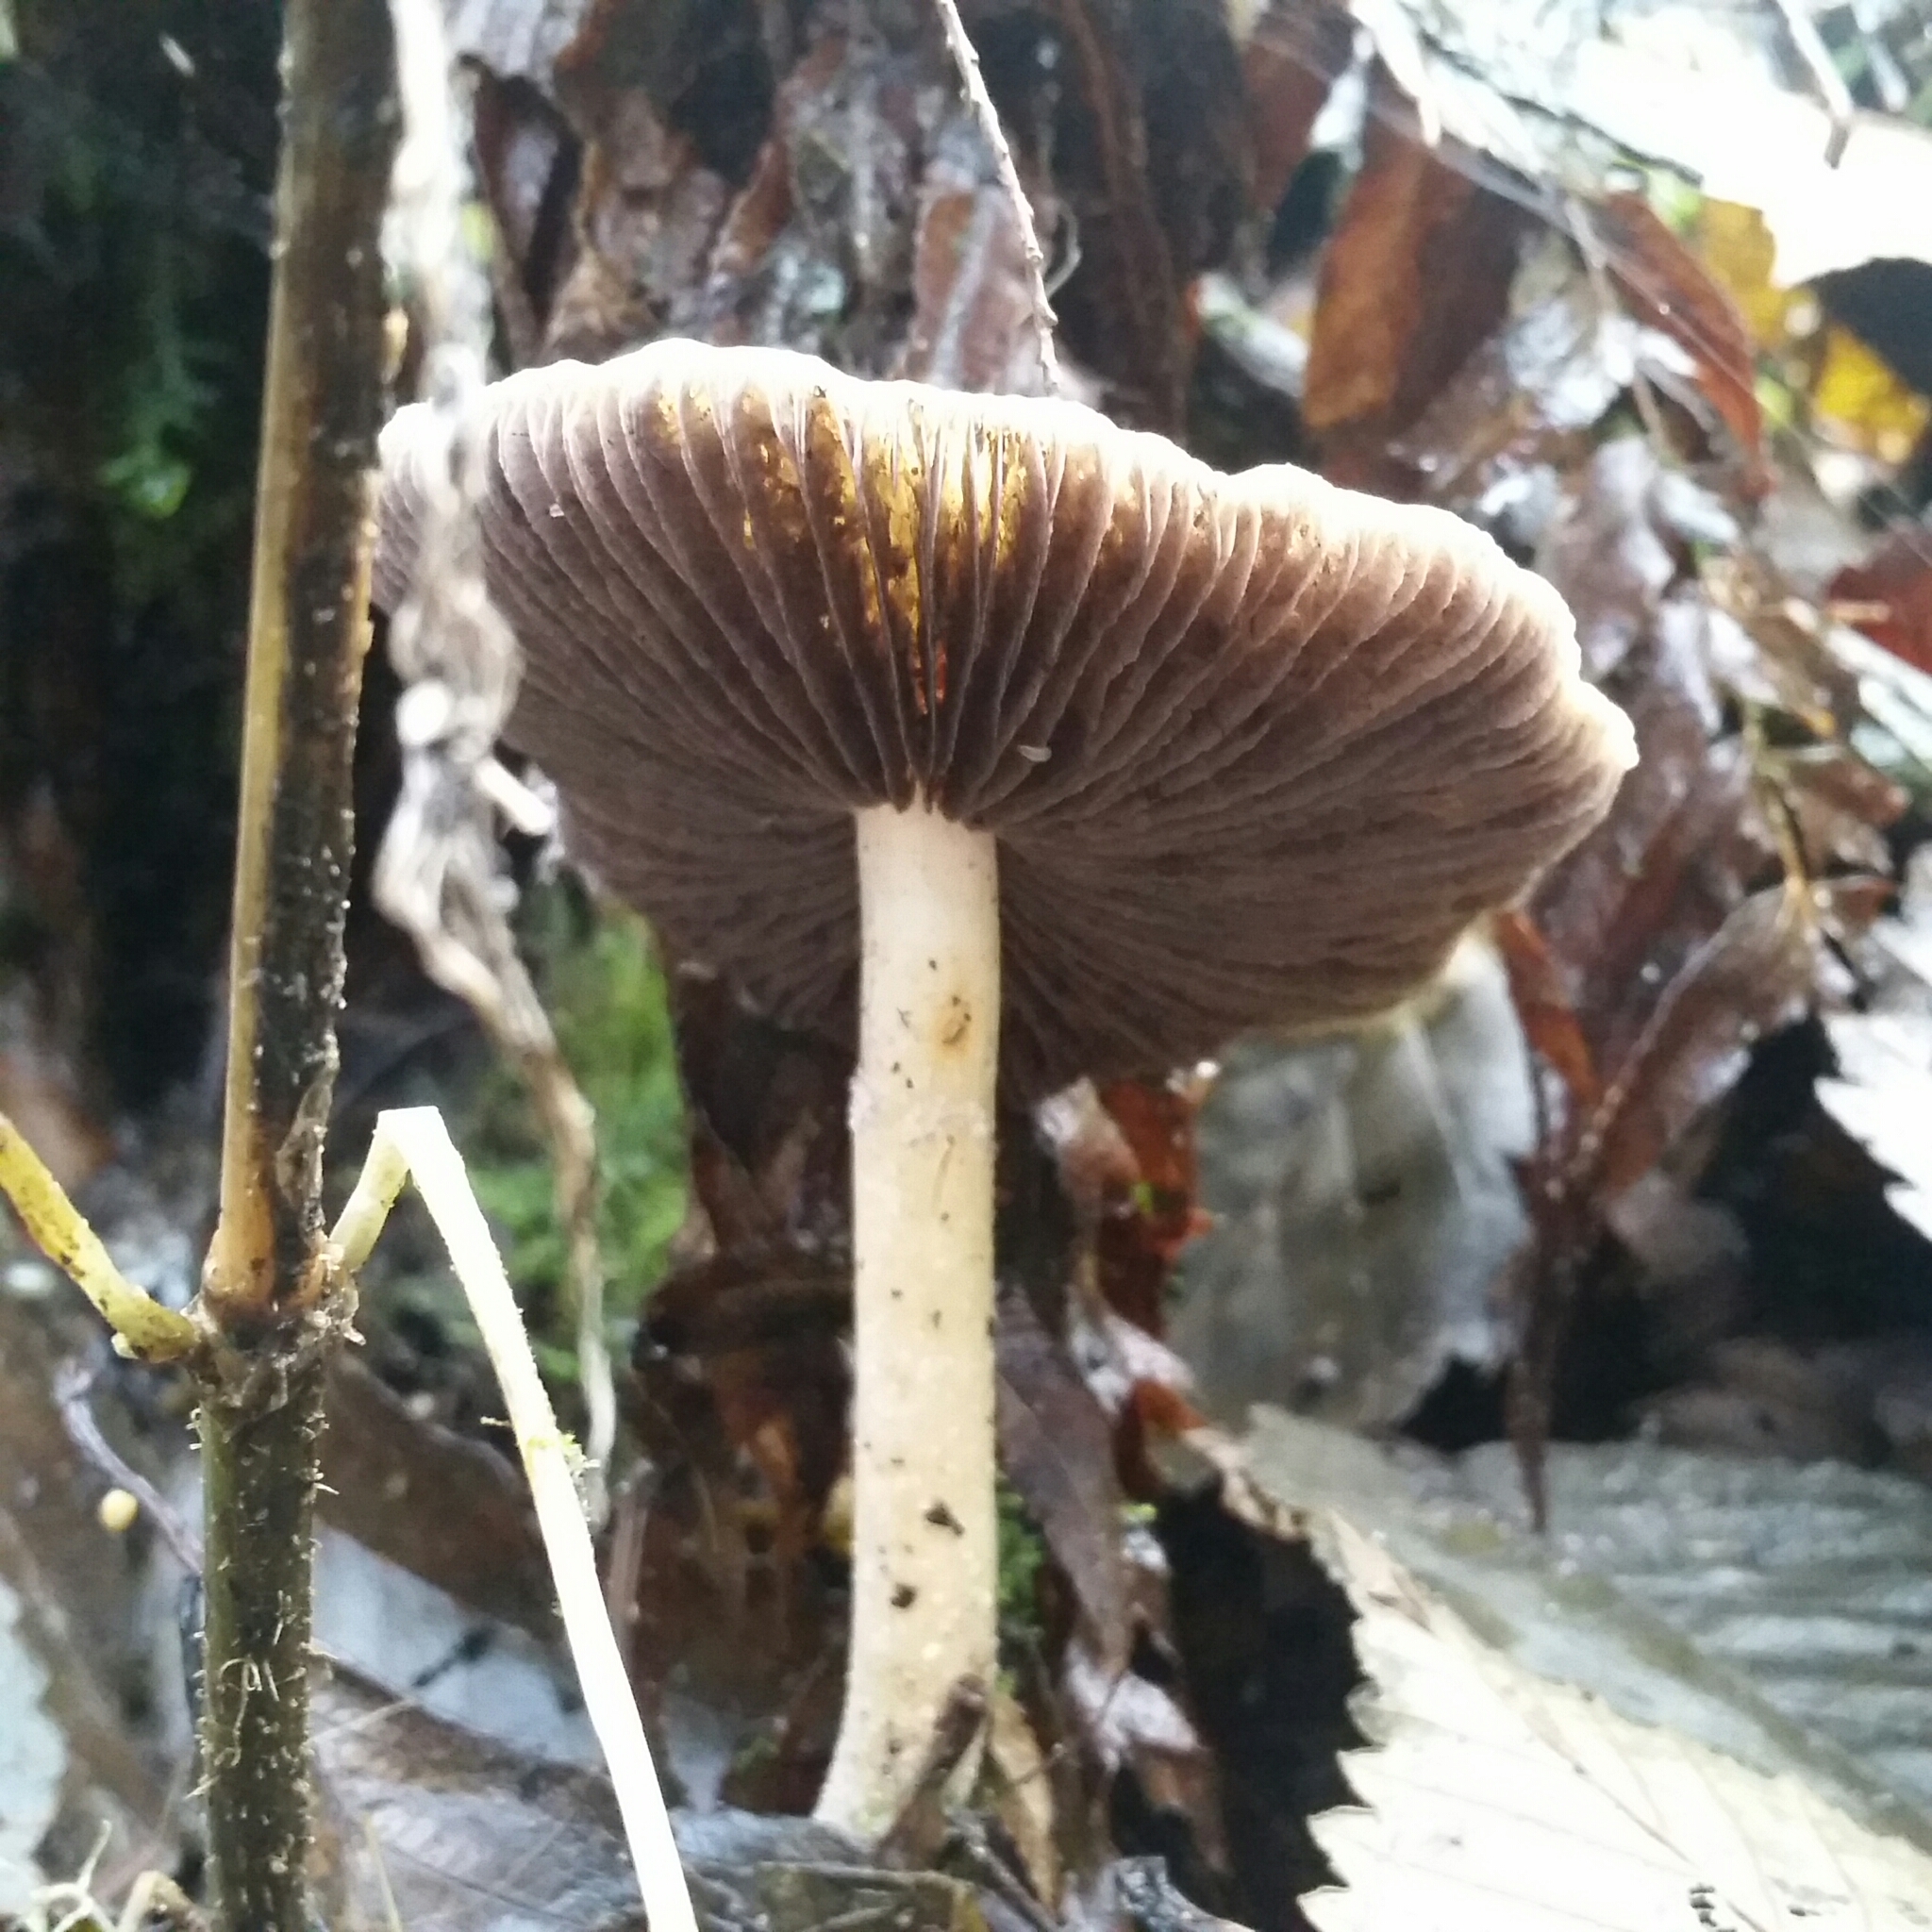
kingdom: Fungi
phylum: Basidiomycota
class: Agaricomycetes
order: Agaricales
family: Strophariaceae
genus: Stropharia
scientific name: Stropharia ambigua
